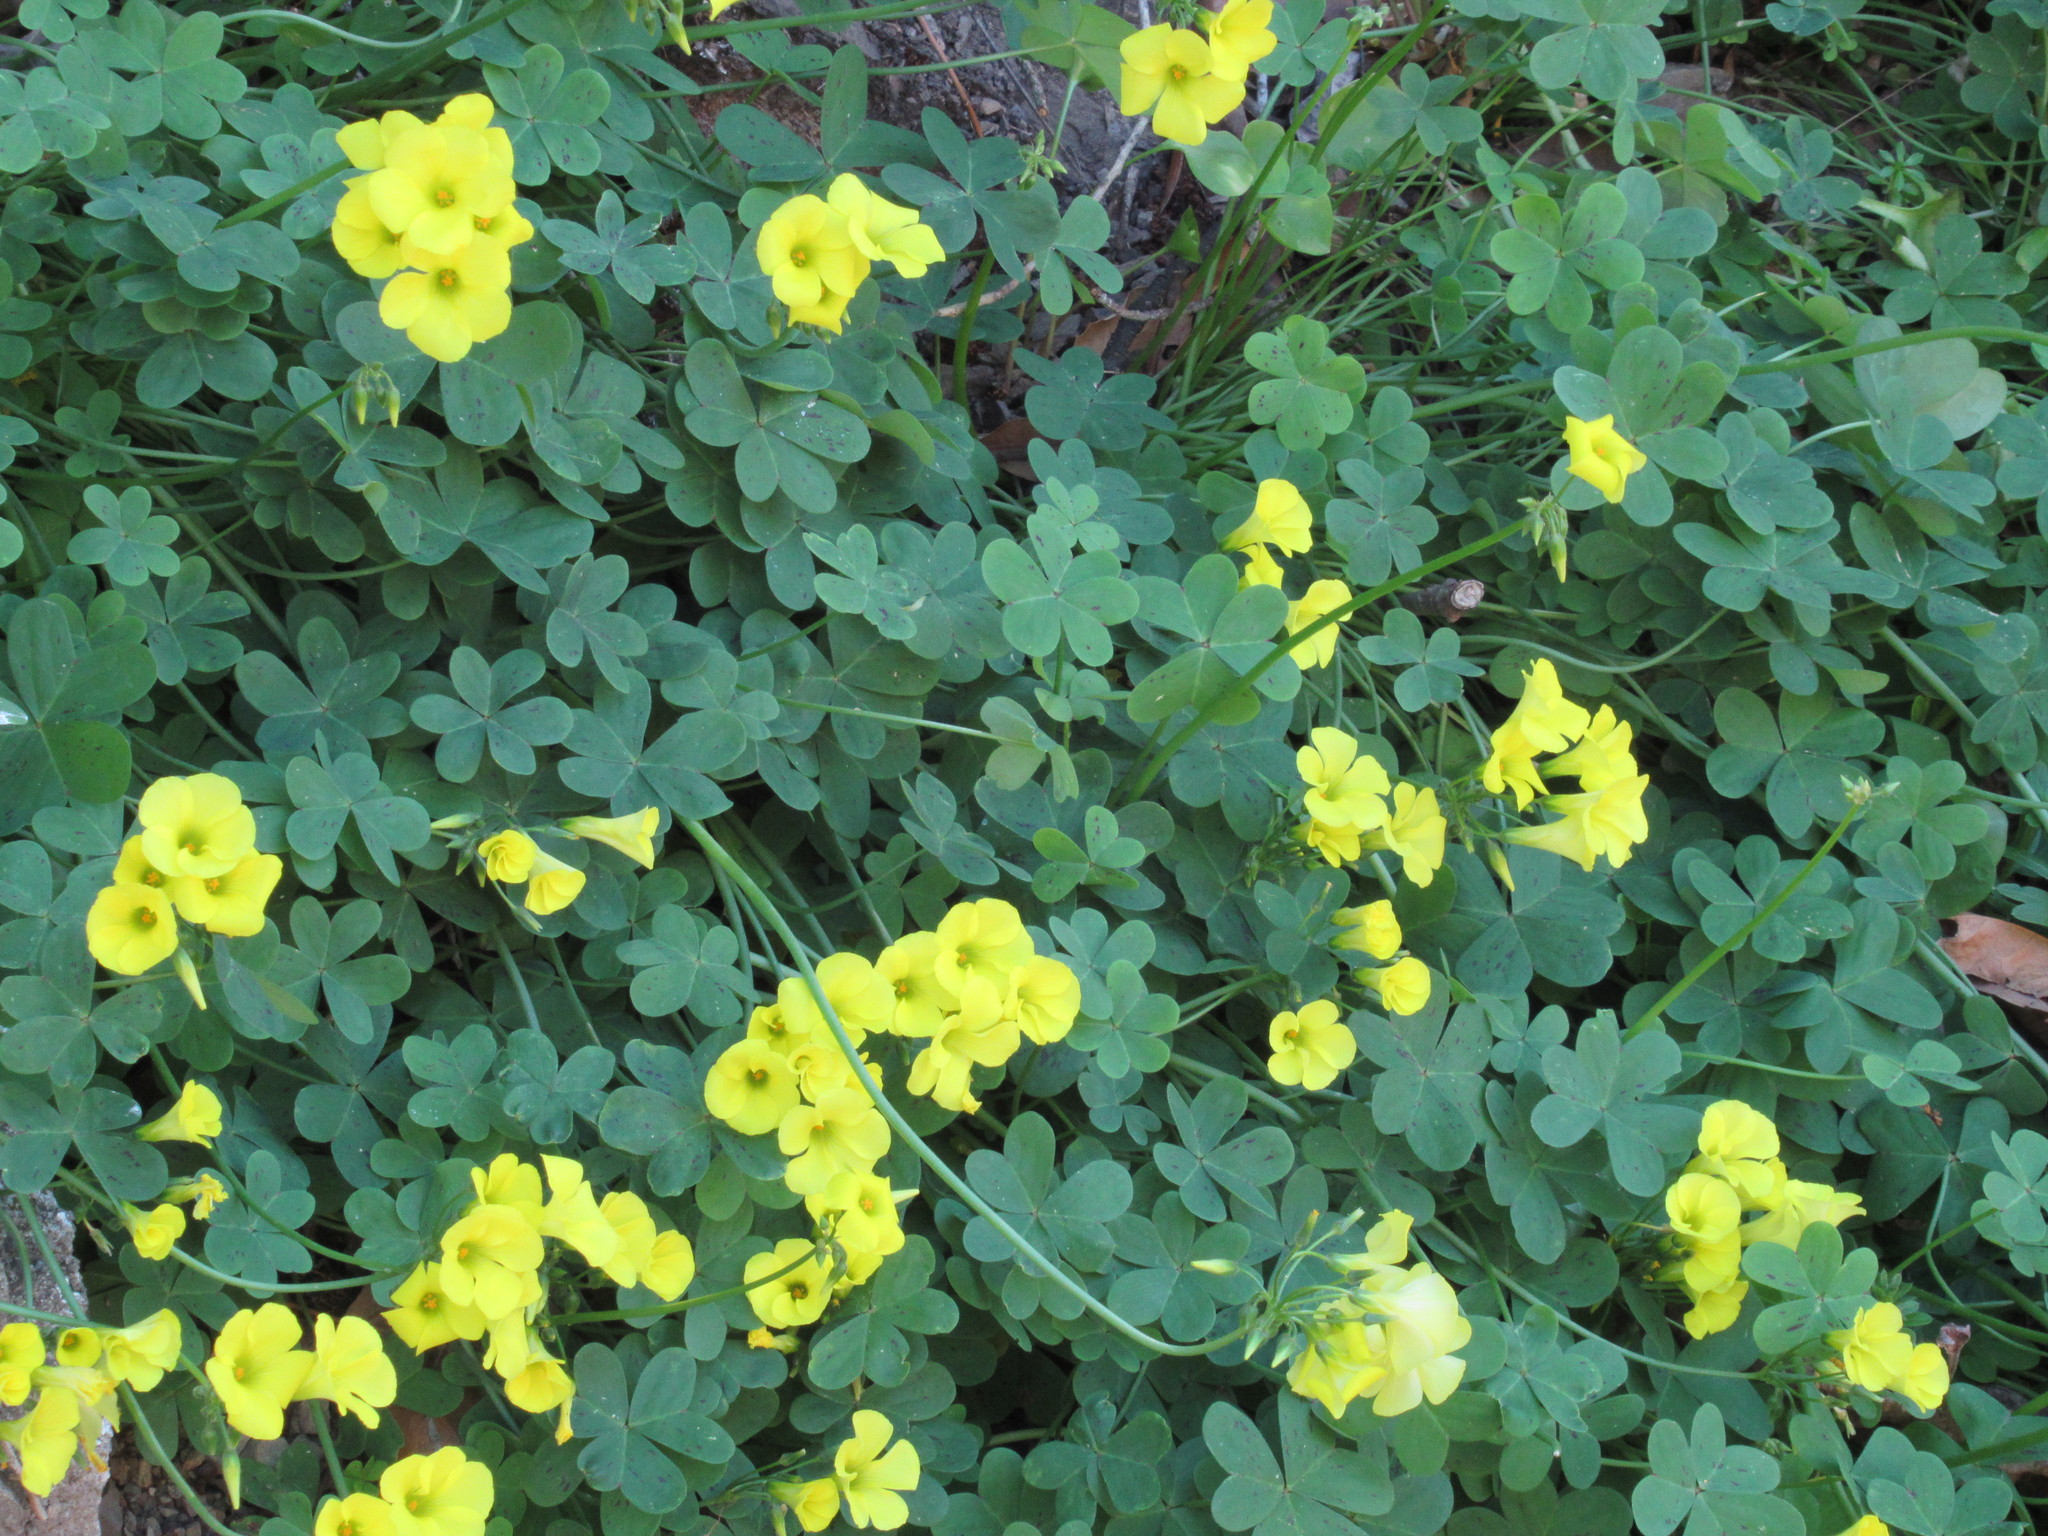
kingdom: Plantae
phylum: Tracheophyta
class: Magnoliopsida
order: Oxalidales
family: Oxalidaceae
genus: Oxalis
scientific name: Oxalis pes-caprae
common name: Bermuda-buttercup
